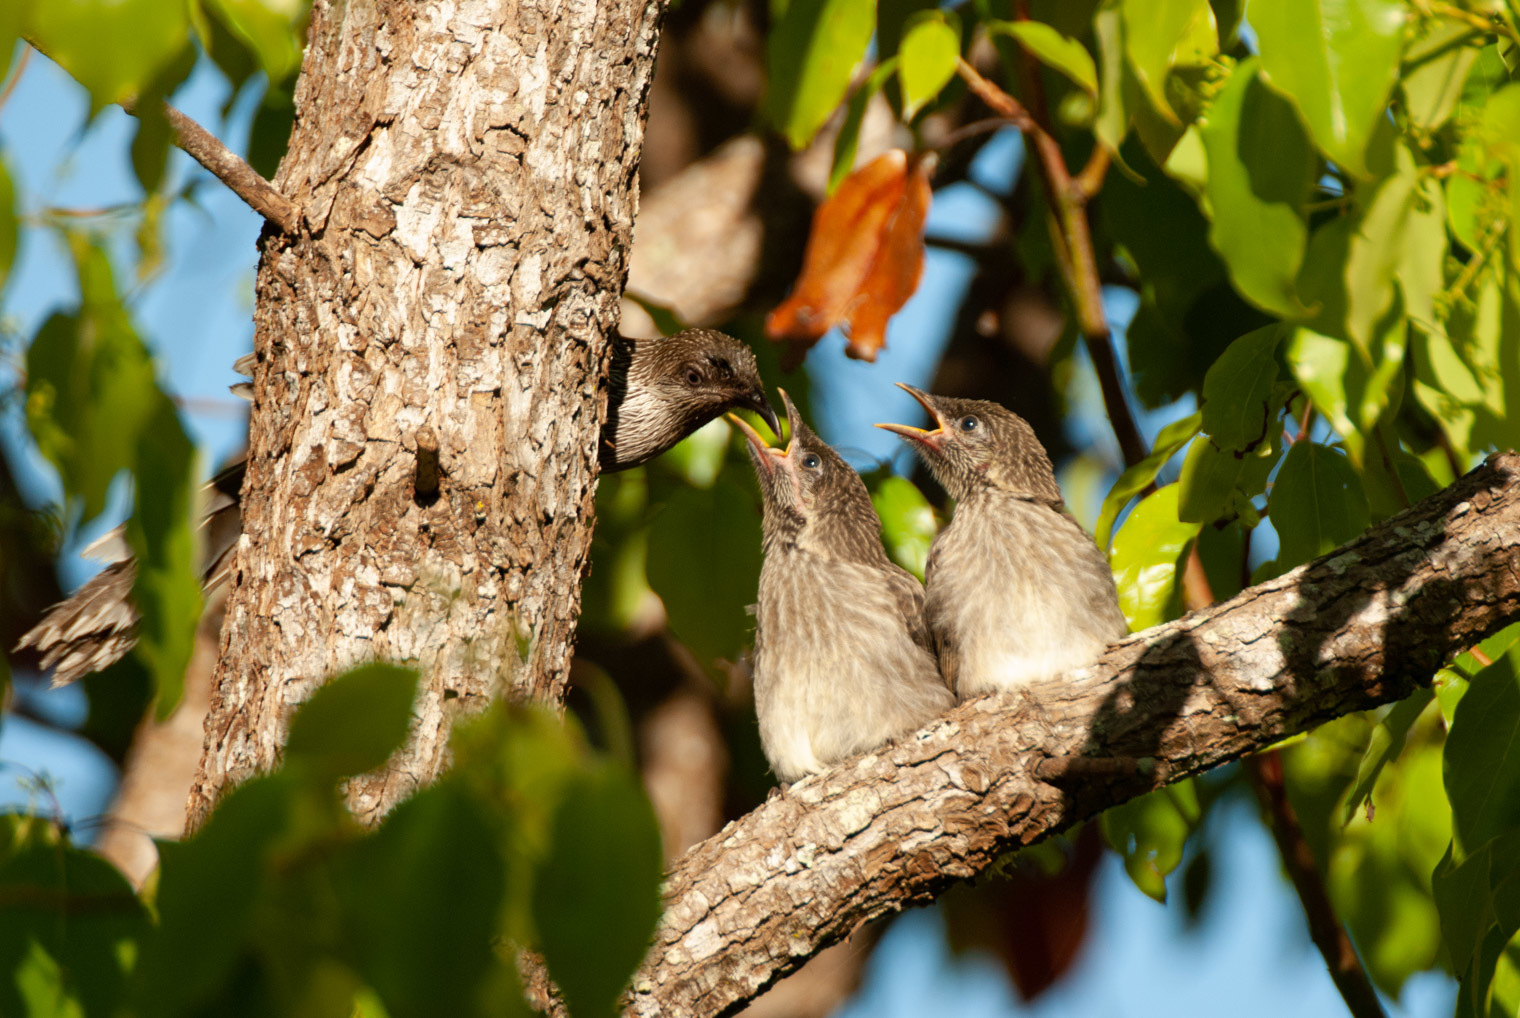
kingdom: Animalia
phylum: Chordata
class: Aves
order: Passeriformes
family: Meliphagidae
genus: Anthochaera
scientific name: Anthochaera chrysoptera
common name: Little wattlebird
